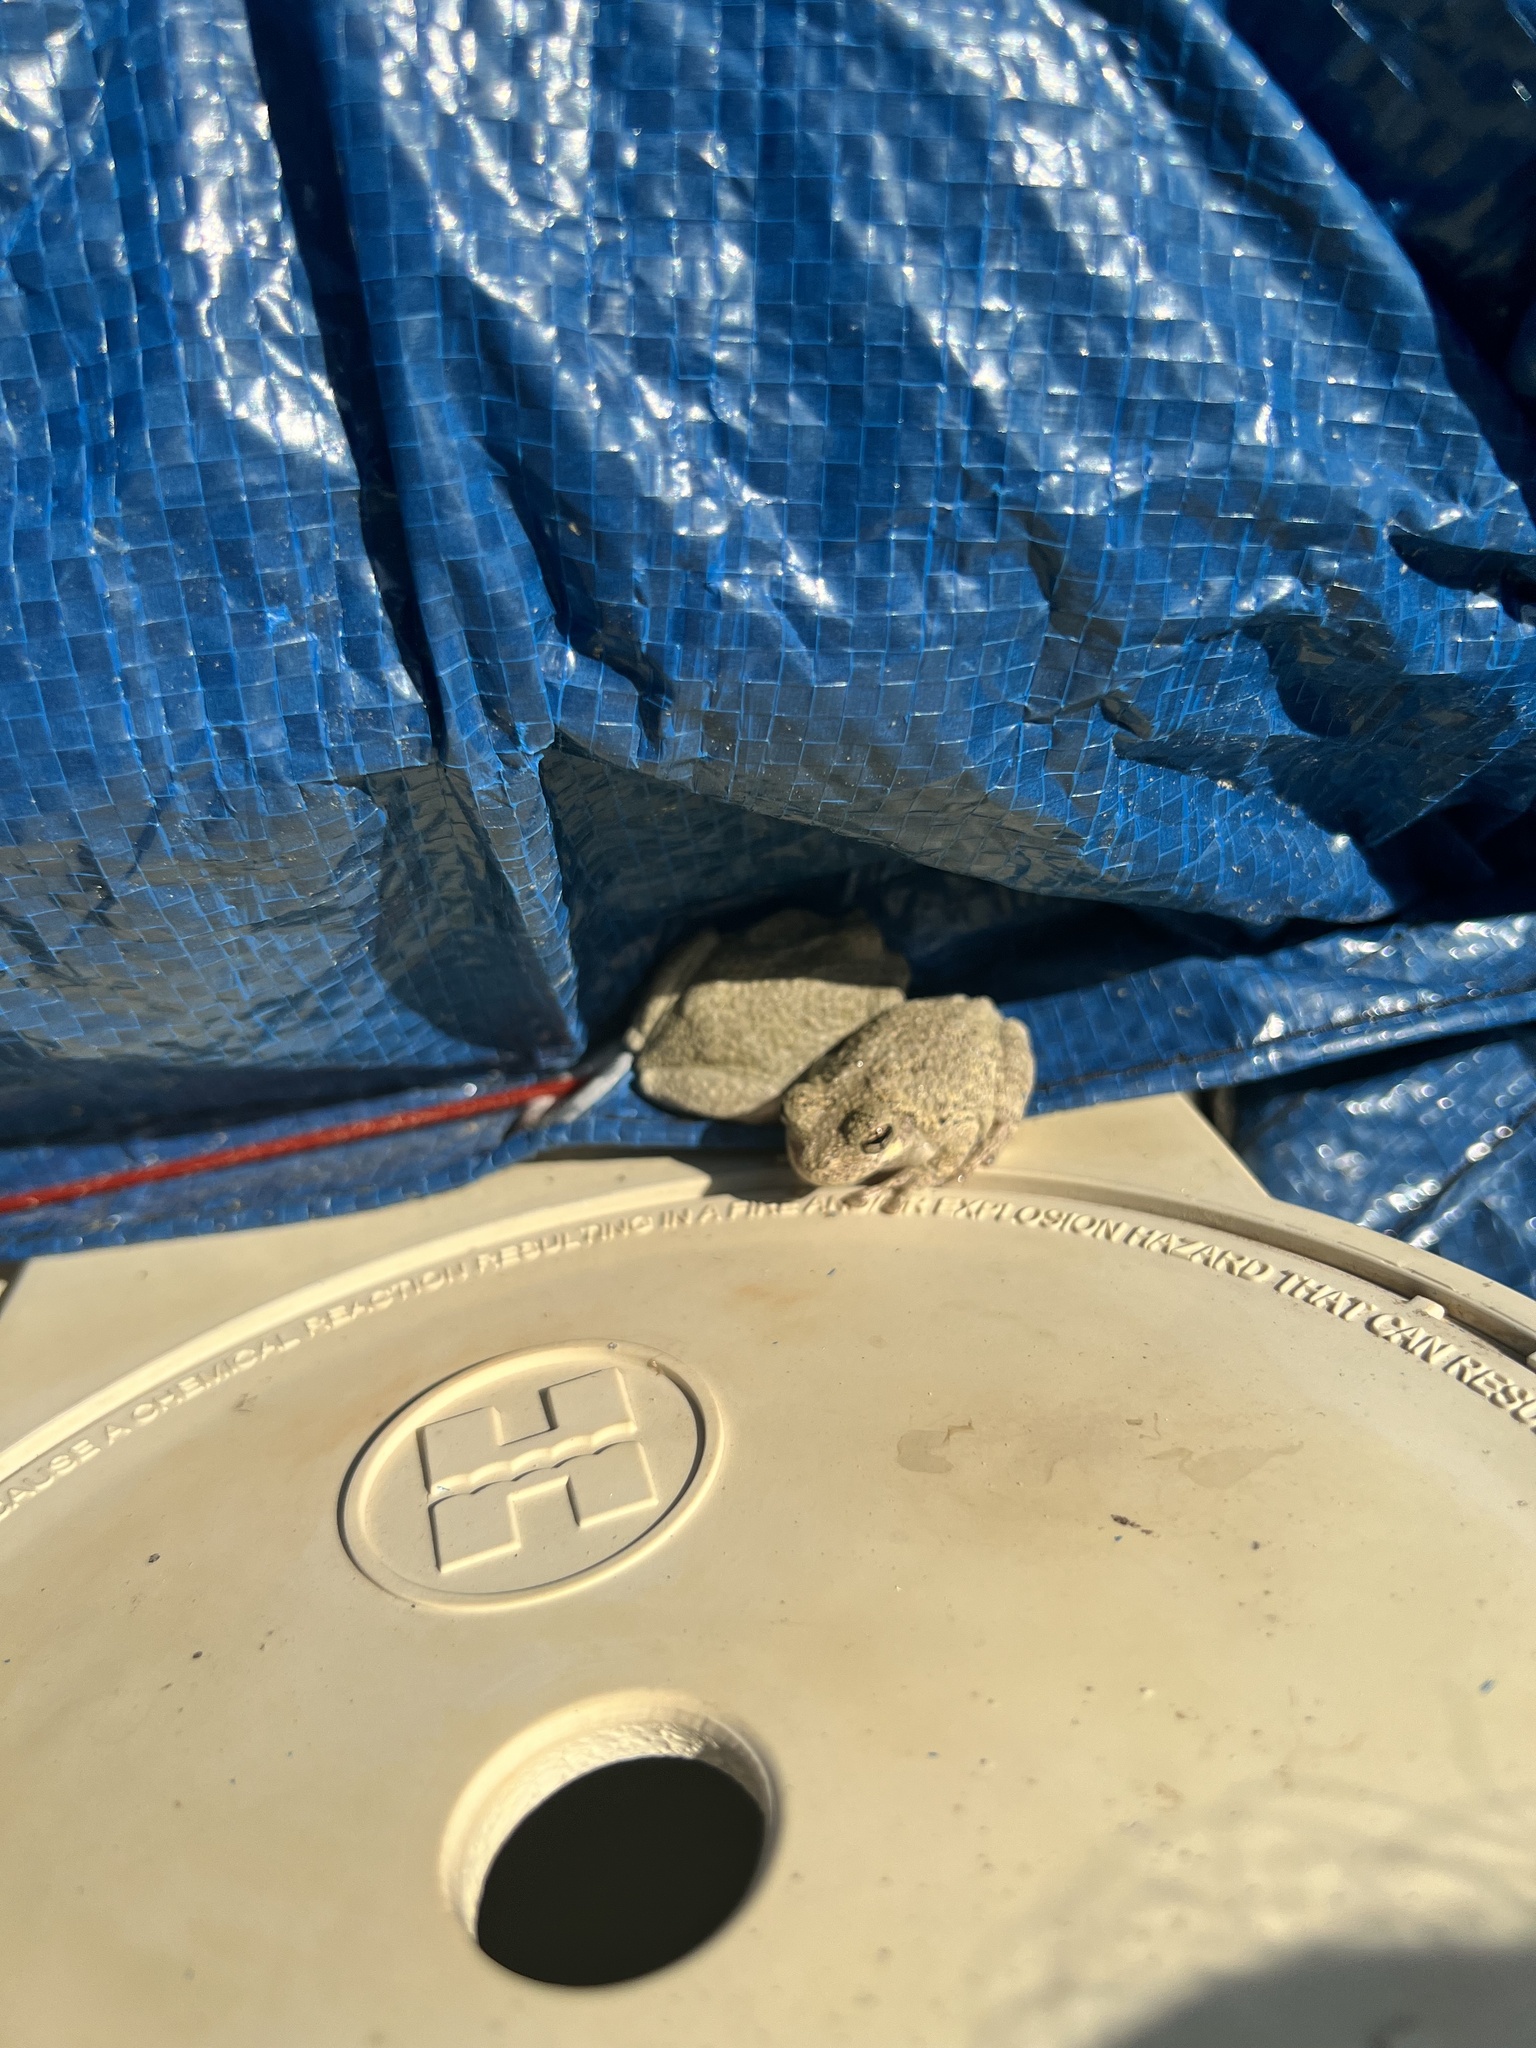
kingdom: Animalia
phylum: Chordata
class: Amphibia
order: Anura
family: Hylidae
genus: Dryophytes
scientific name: Dryophytes chrysoscelis
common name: Cope's gray treefrog
